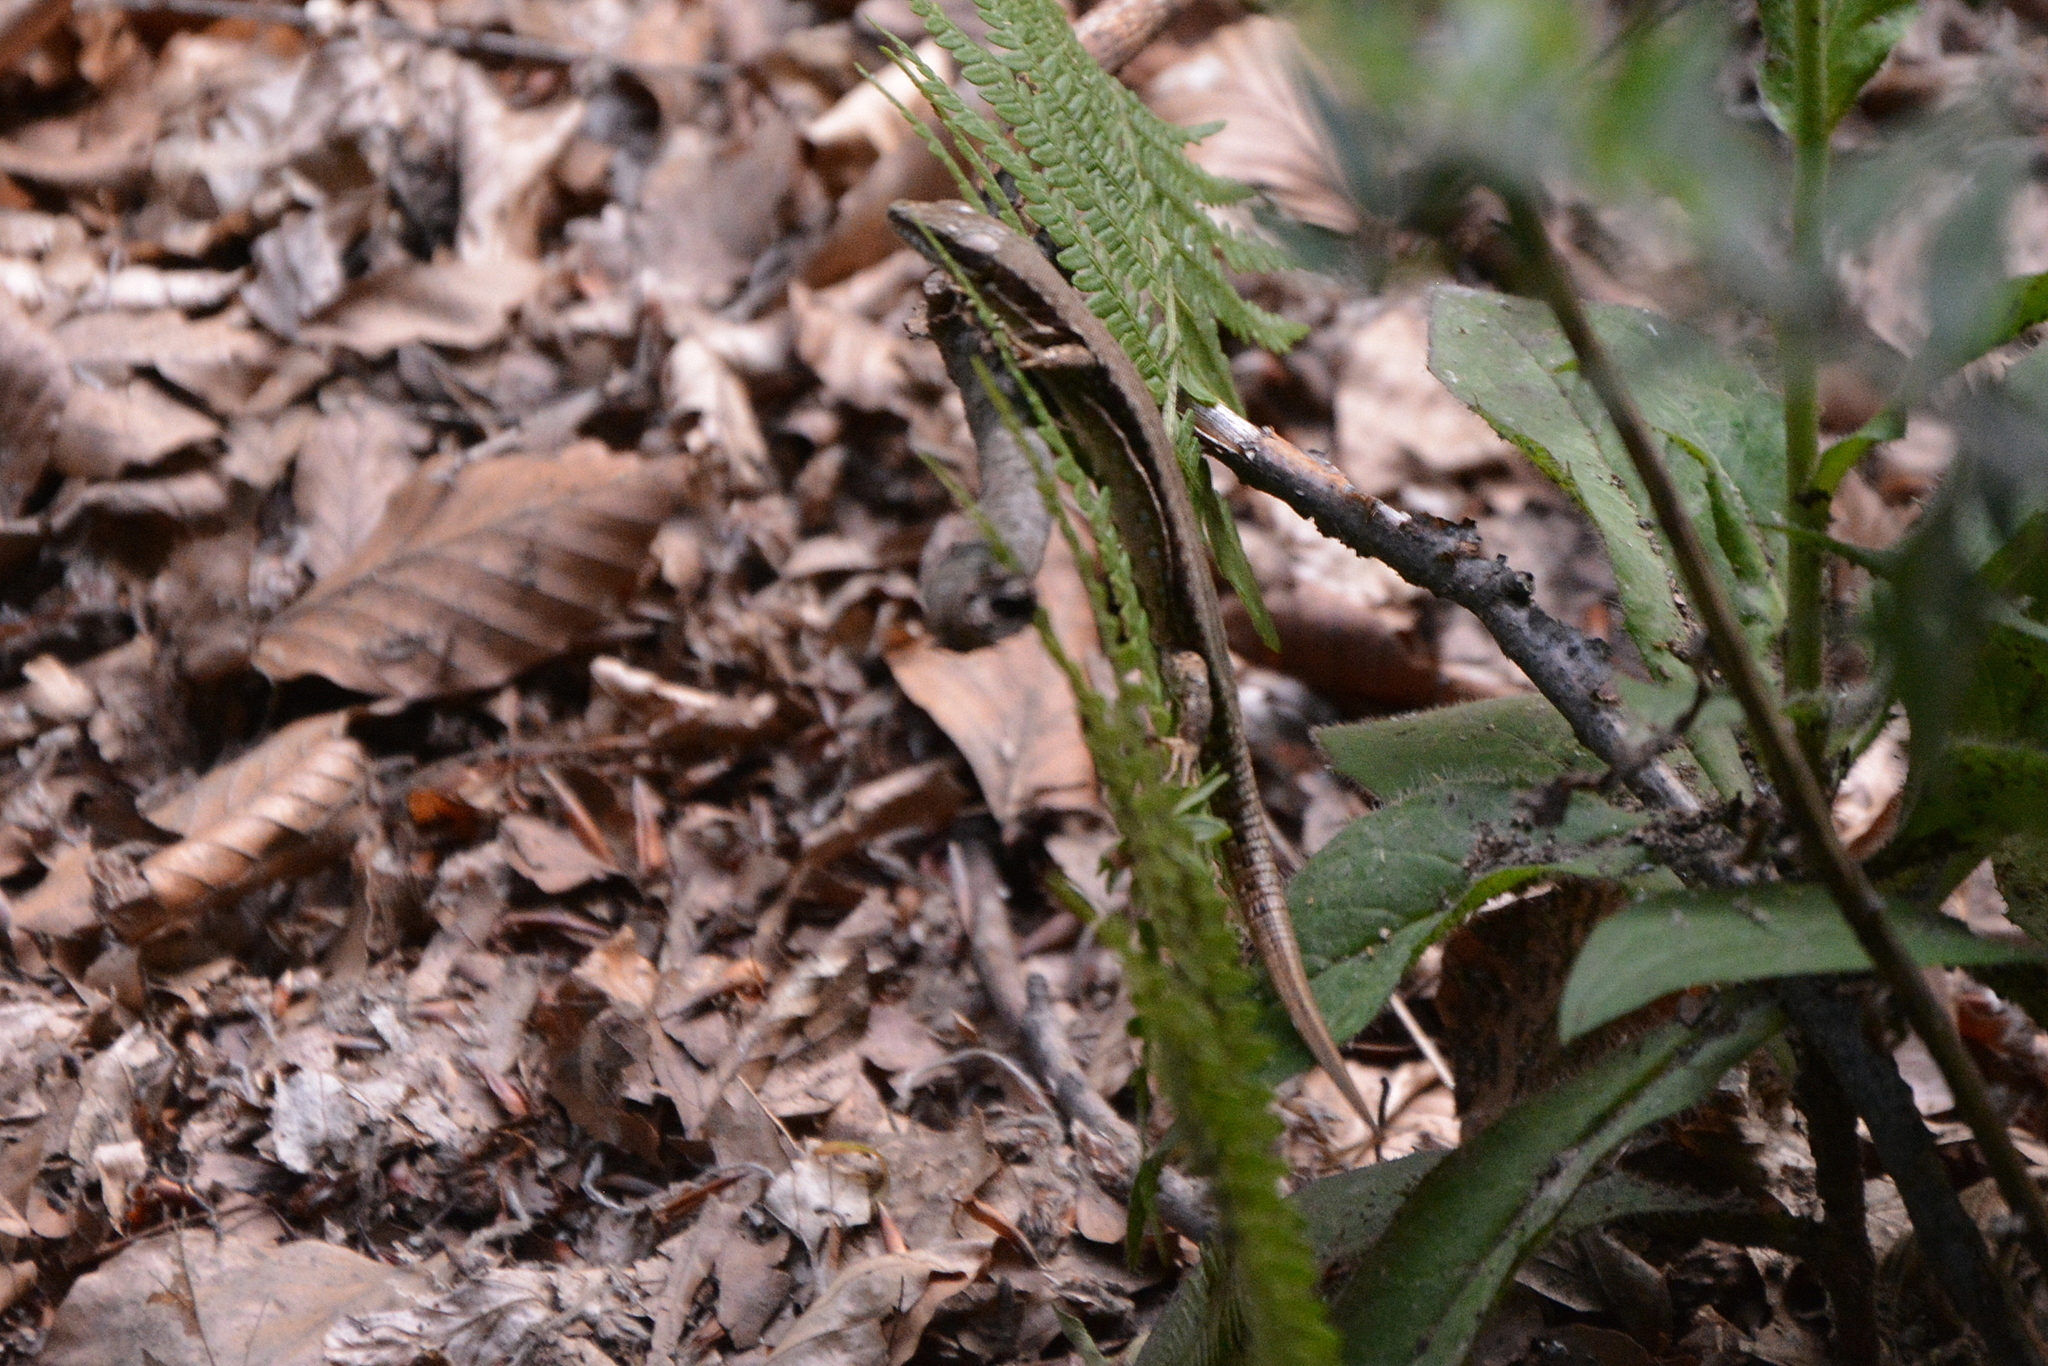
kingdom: Animalia
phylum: Chordata
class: Squamata
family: Lacertidae
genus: Podarcis
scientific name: Podarcis muralis
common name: Common wall lizard
